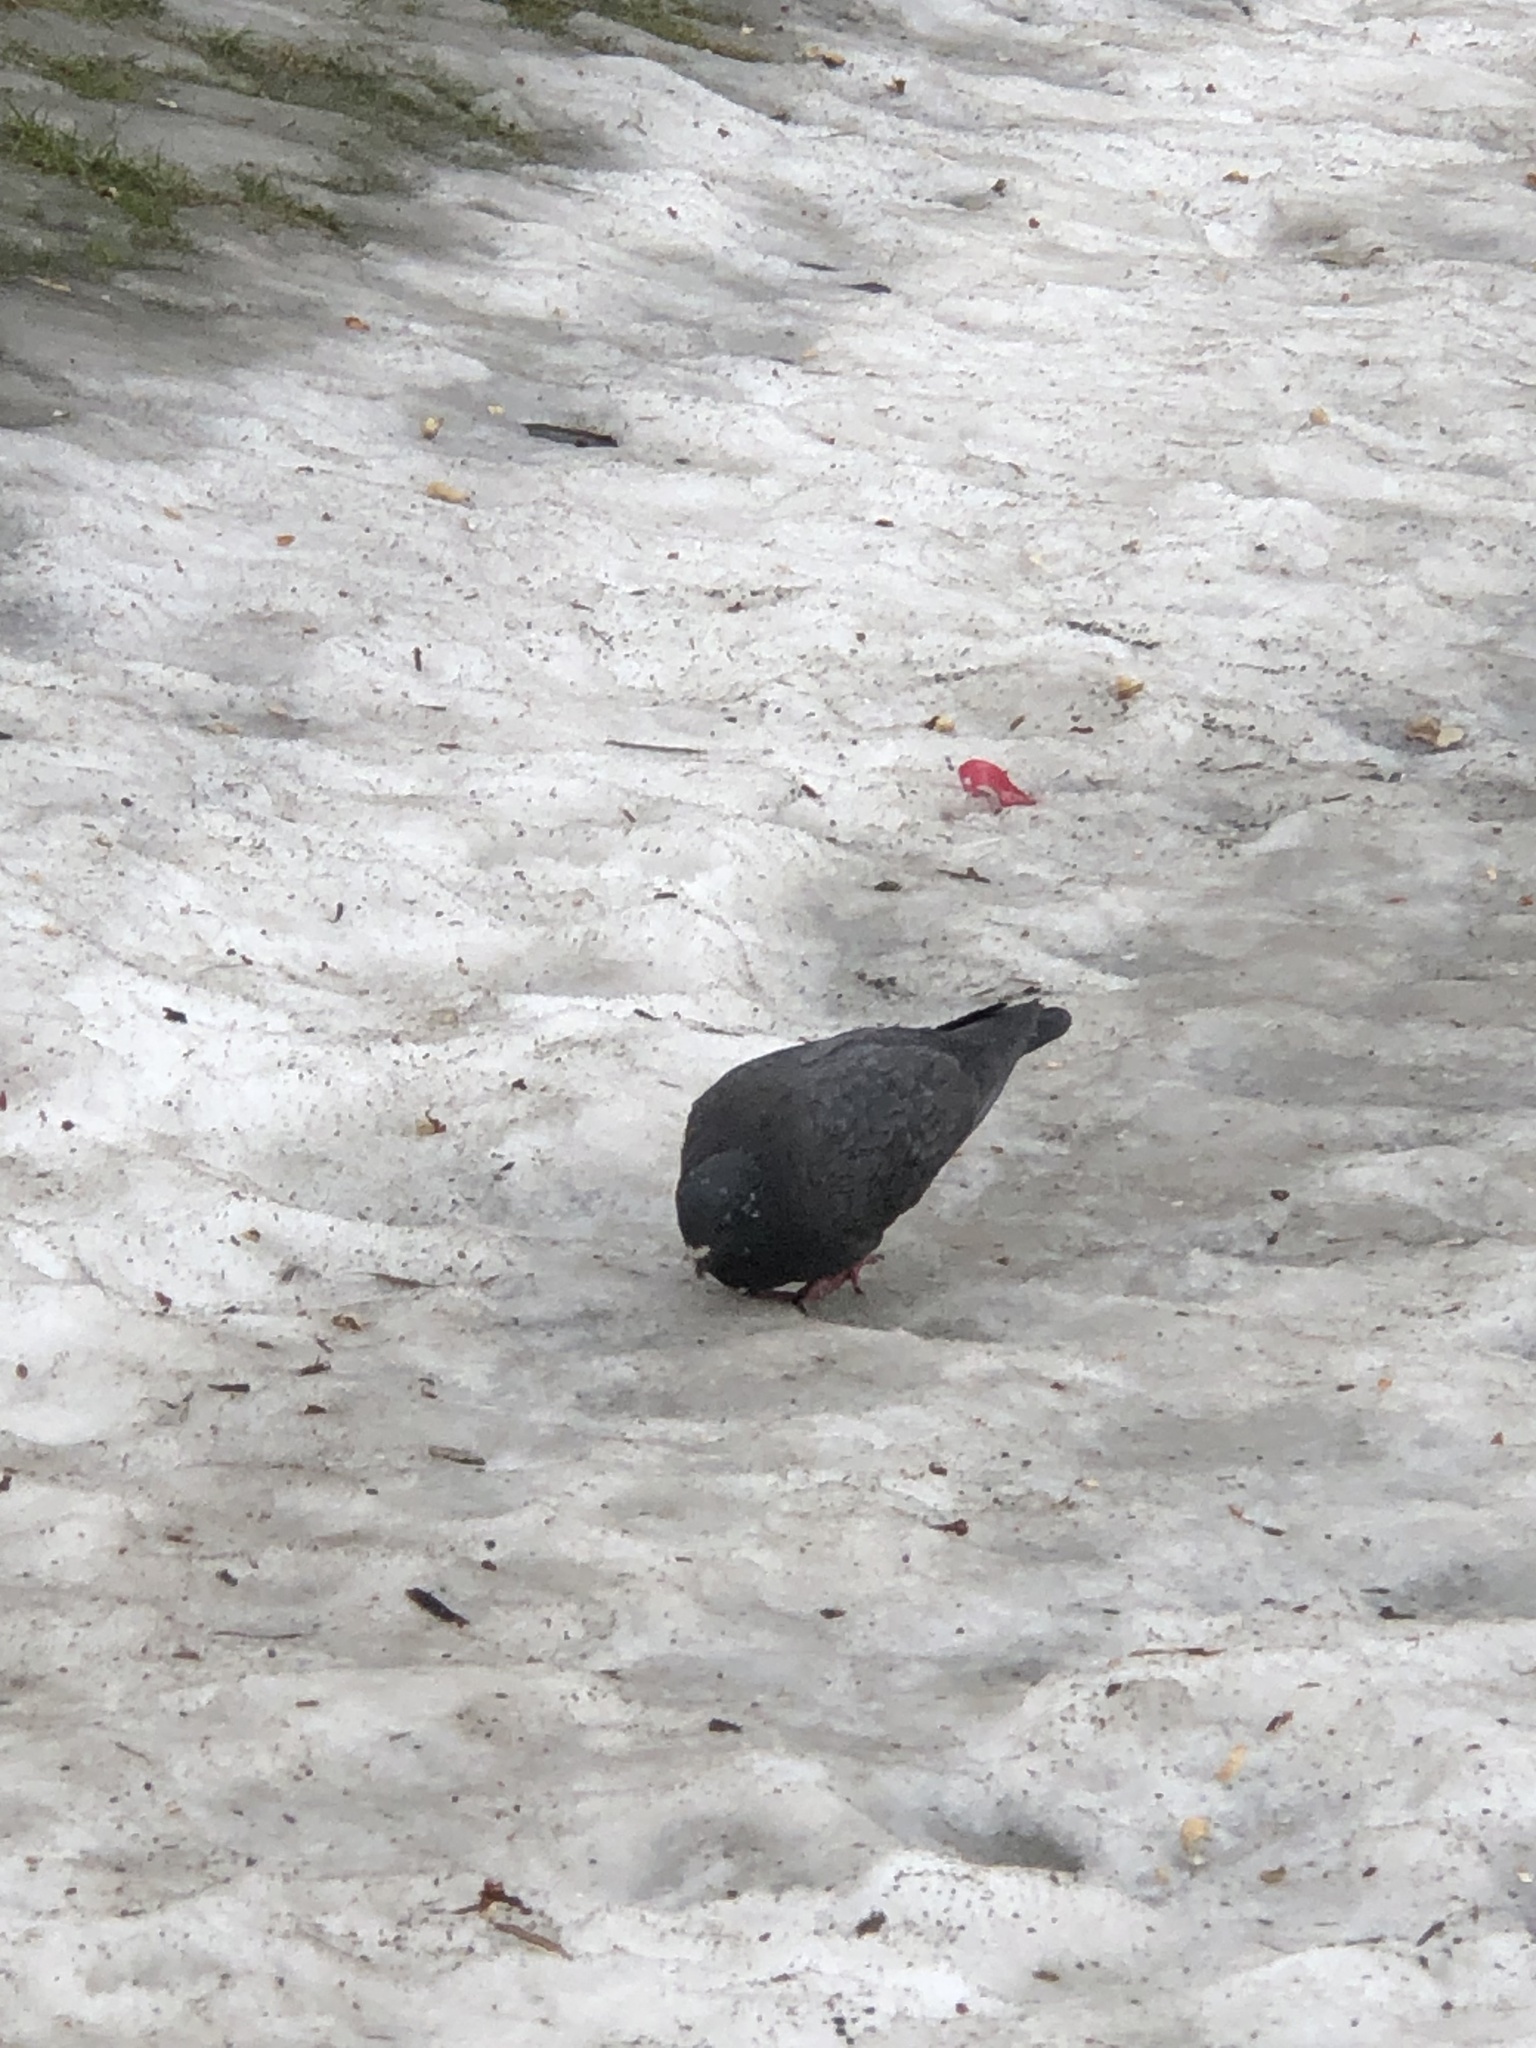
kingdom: Animalia
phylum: Chordata
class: Aves
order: Columbiformes
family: Columbidae
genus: Columba
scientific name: Columba livia
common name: Rock pigeon
